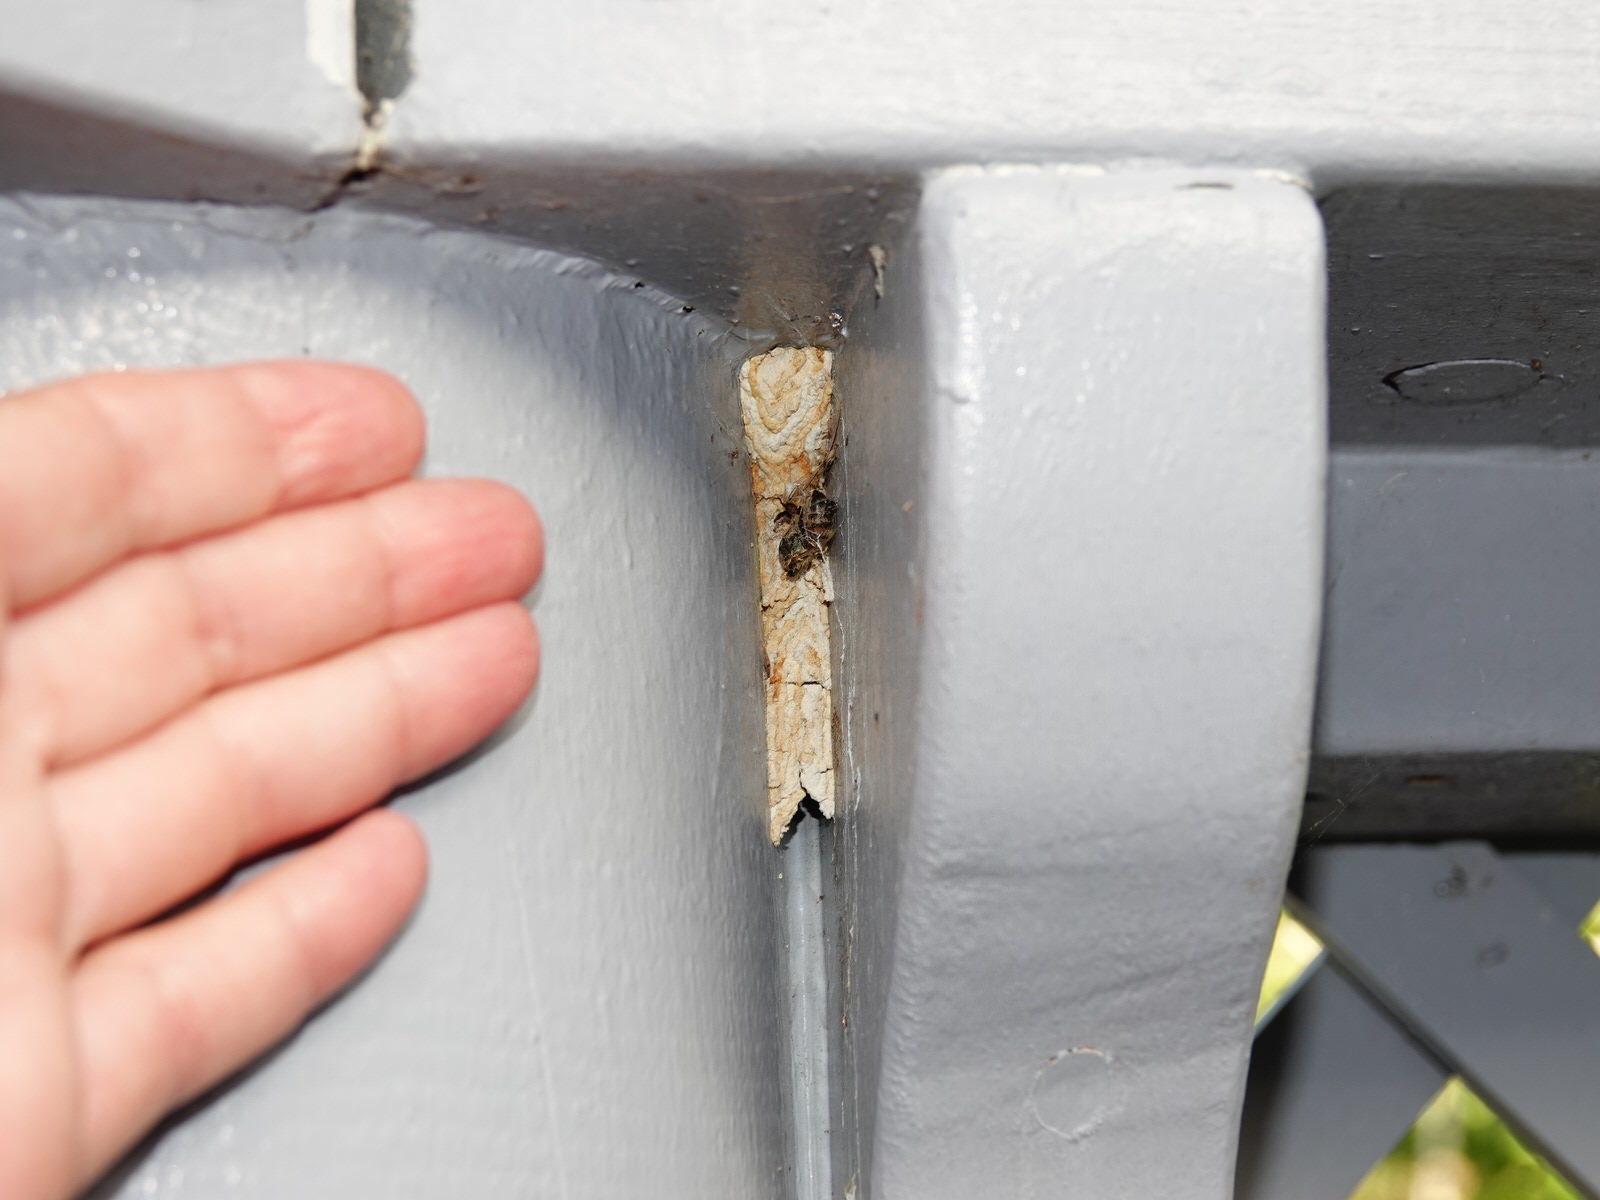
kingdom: Animalia
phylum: Arthropoda
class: Insecta
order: Hymenoptera
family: Crabronidae
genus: Pison
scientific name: Pison spinolae
